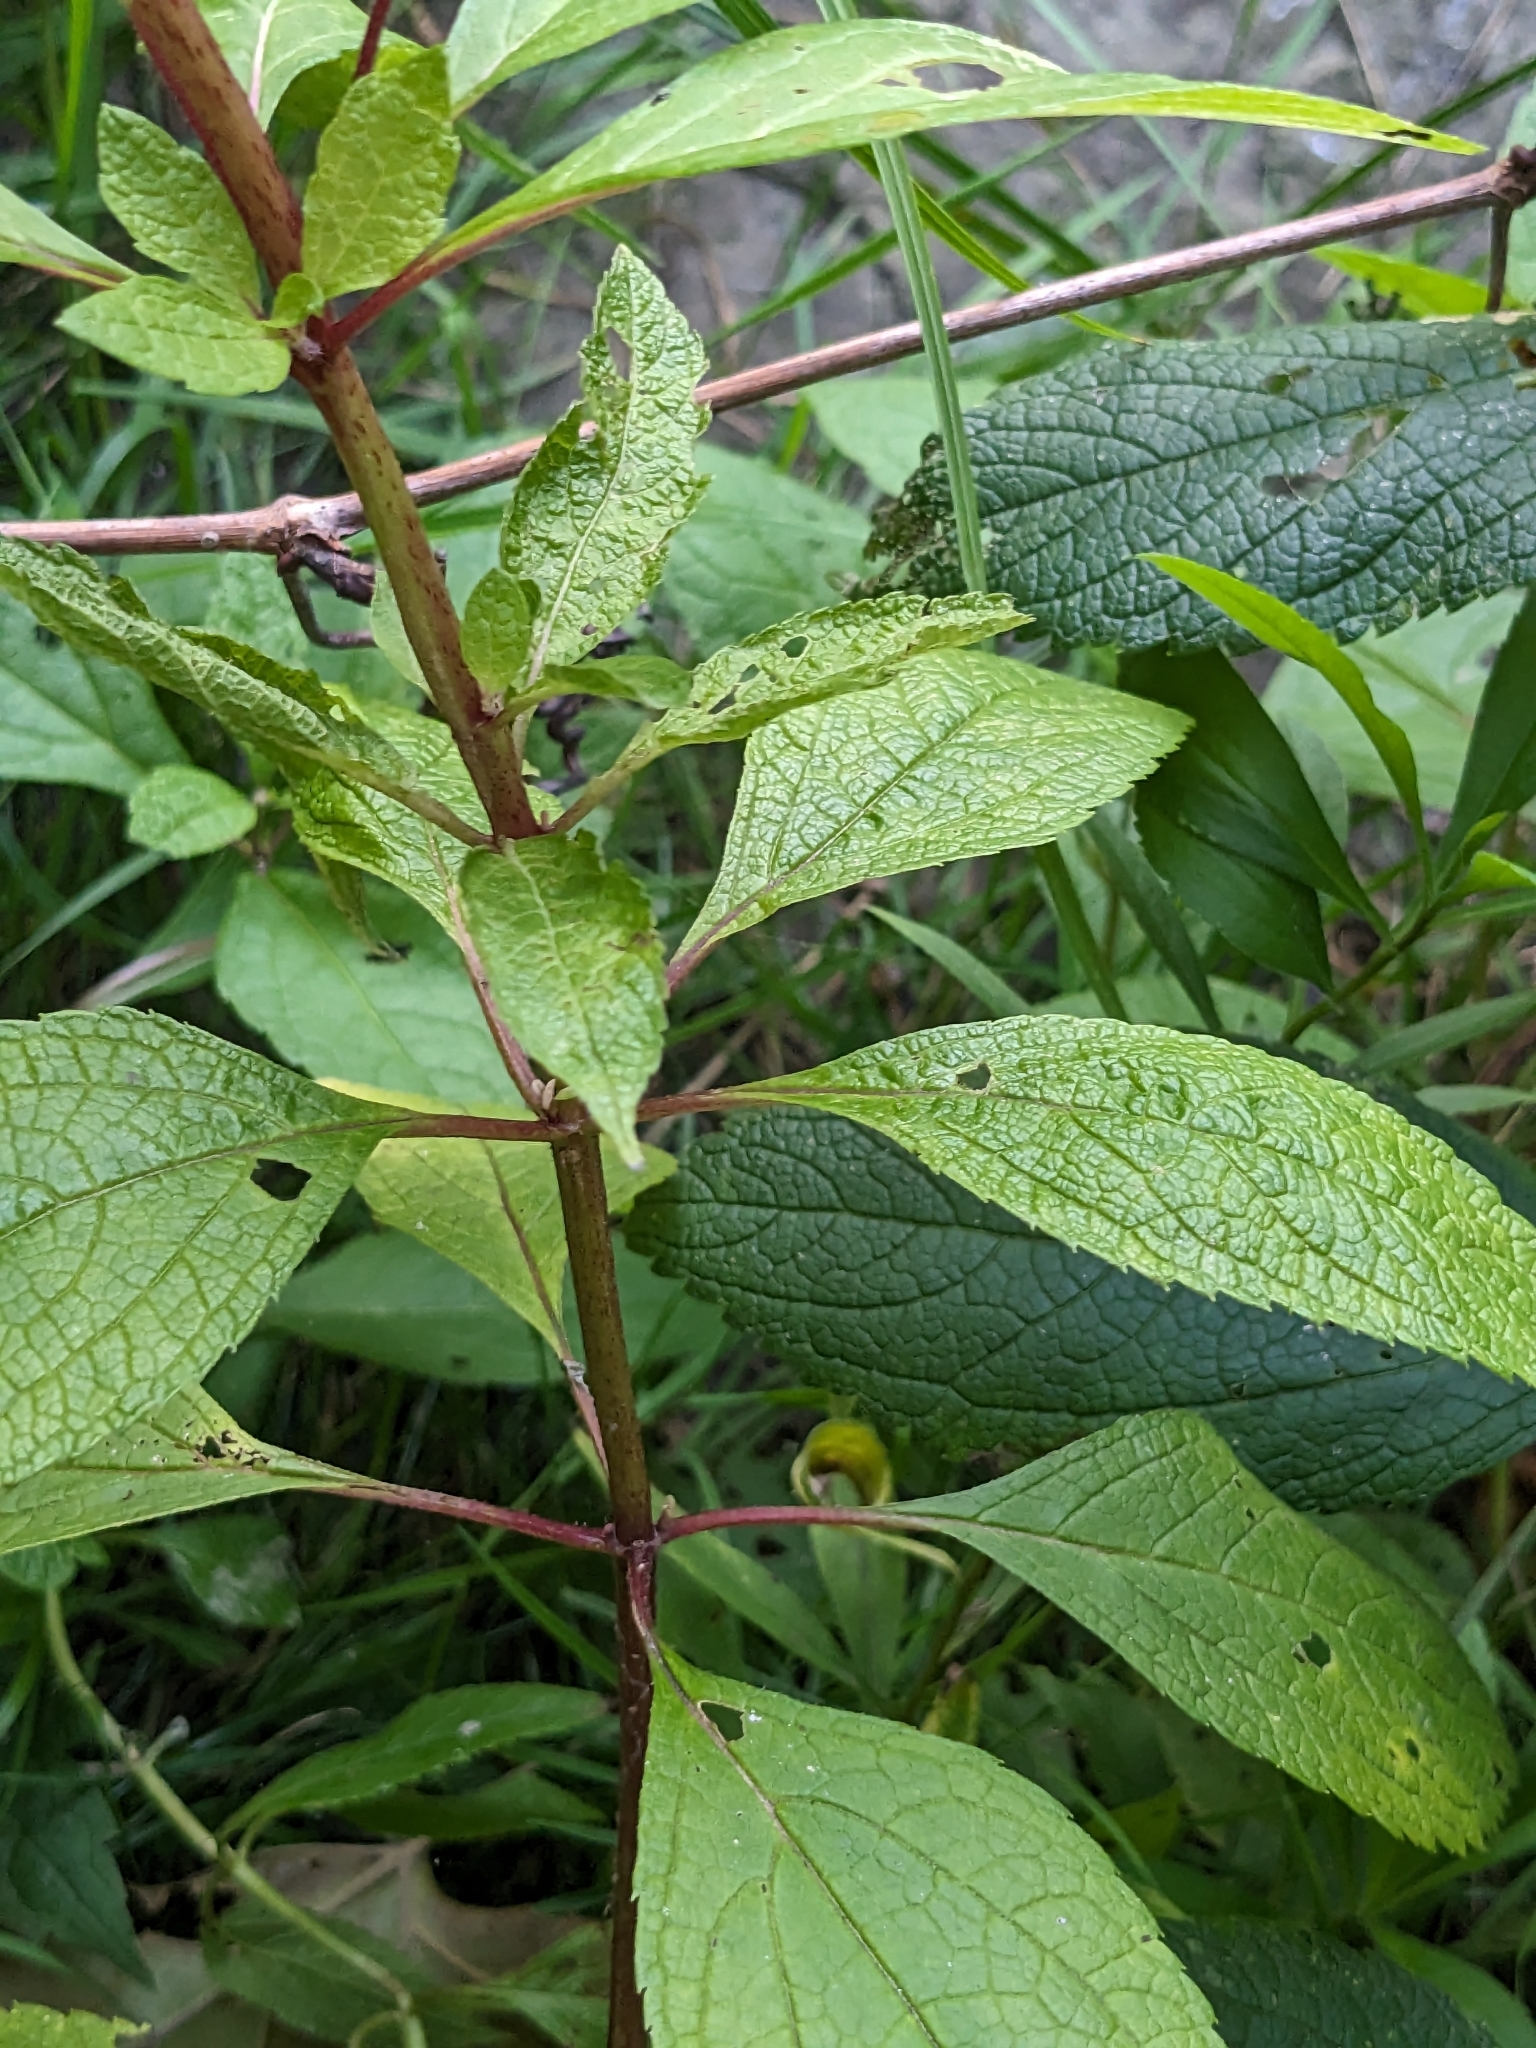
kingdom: Plantae
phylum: Tracheophyta
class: Magnoliopsida
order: Asterales
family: Asteraceae
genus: Eutrochium
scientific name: Eutrochium maculatum
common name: Spotted joe pye weed
